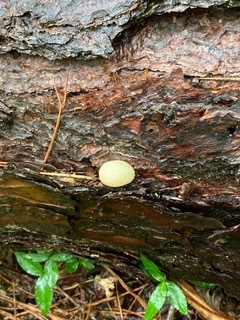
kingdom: Fungi
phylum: Basidiomycota
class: Agaricomycetes
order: Polyporales
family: Polyporaceae
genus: Cryptoporus
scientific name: Cryptoporus volvatus
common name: Veiled polypore
